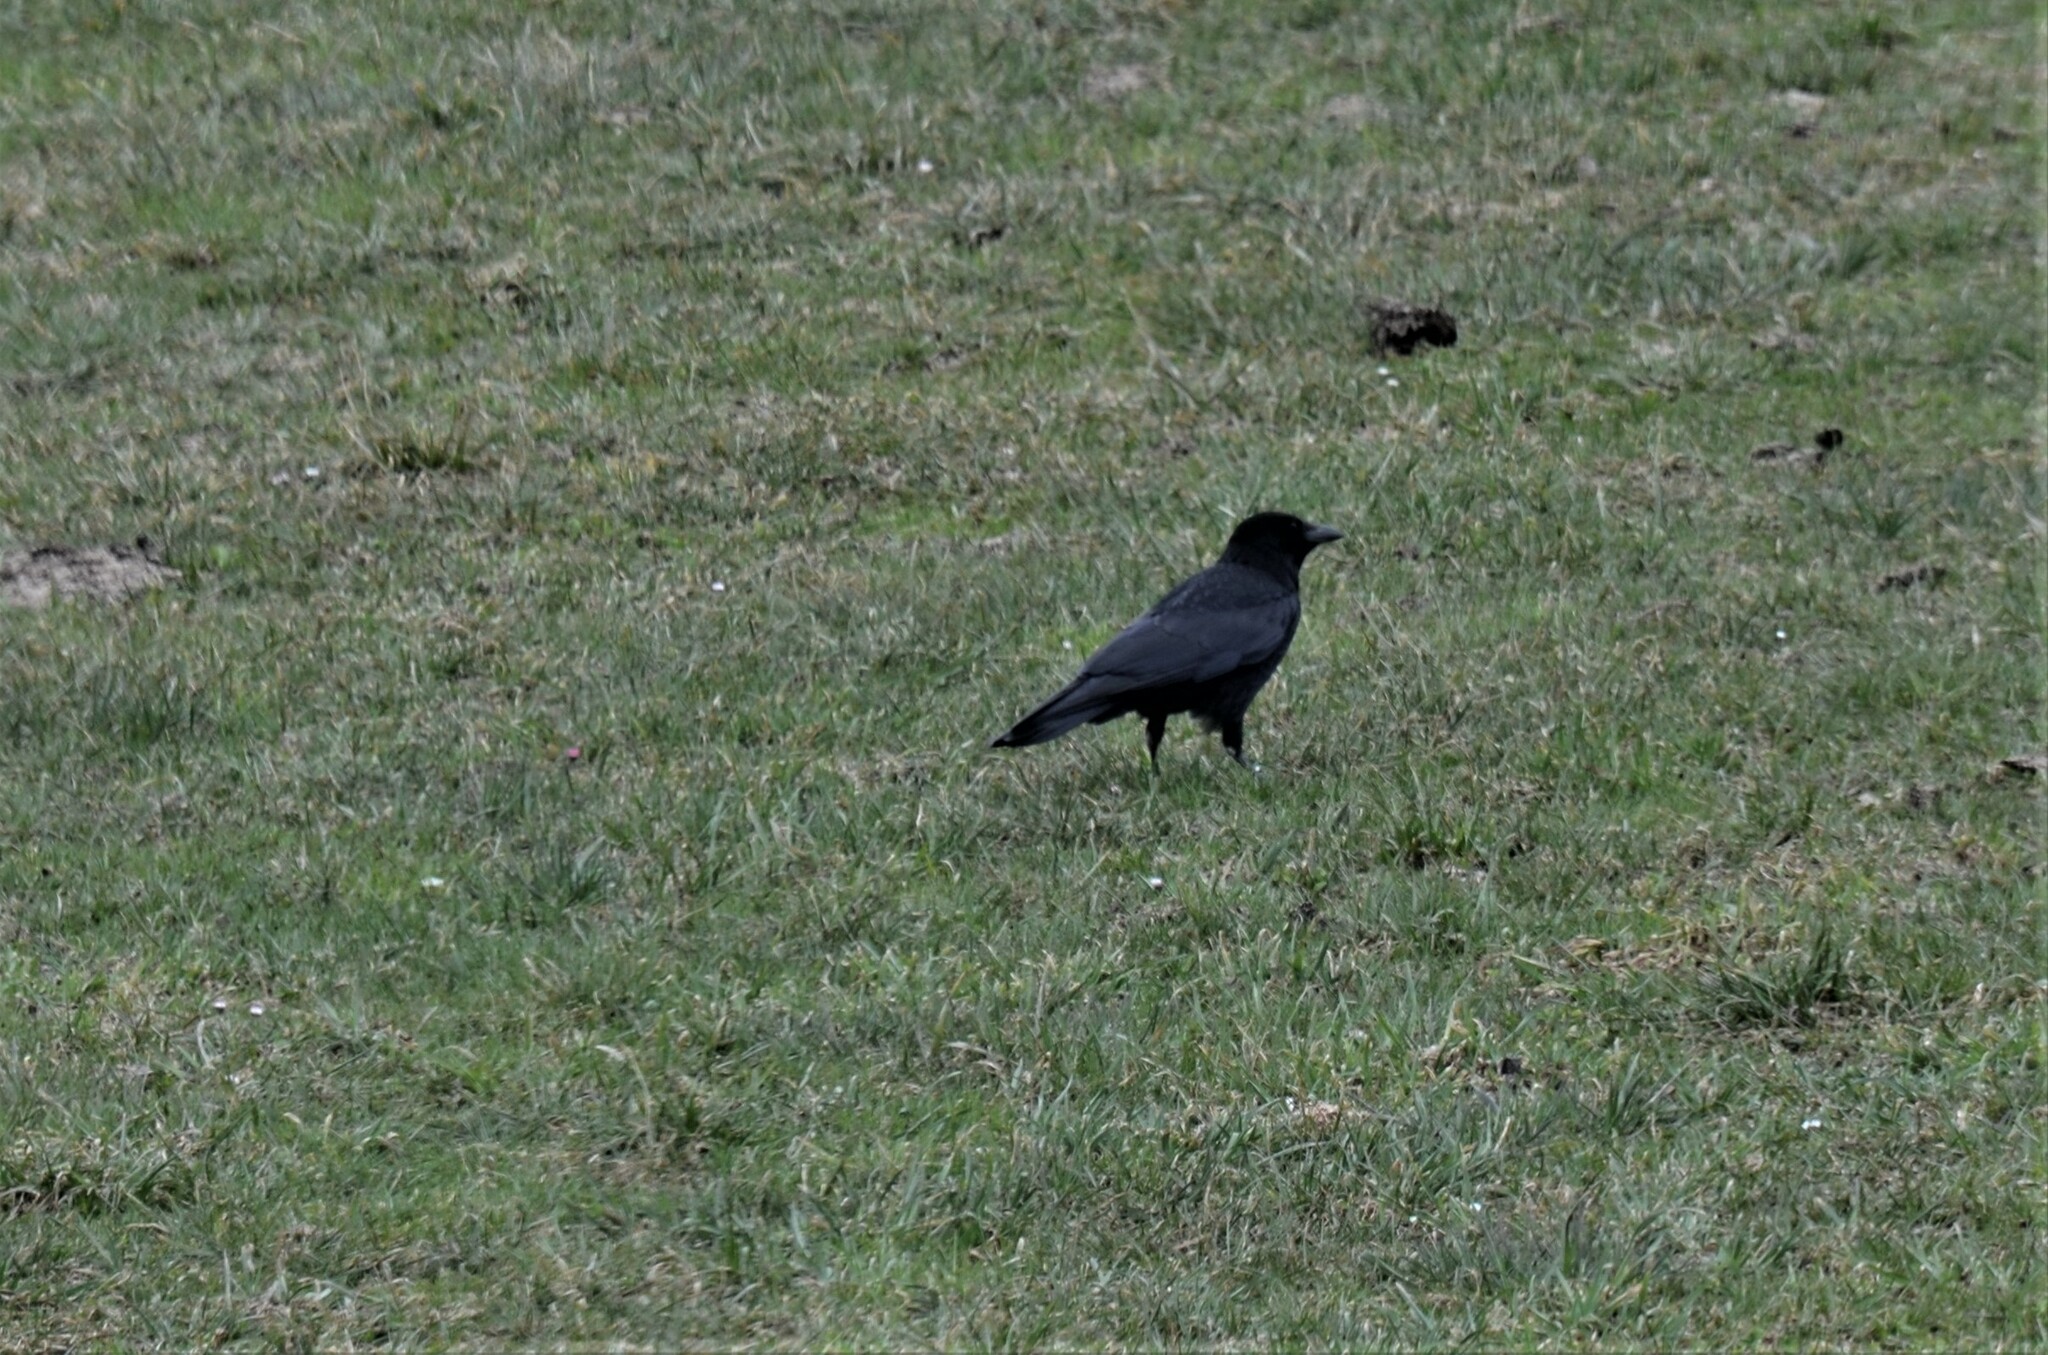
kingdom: Animalia
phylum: Chordata
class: Aves
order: Passeriformes
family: Corvidae
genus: Corvus
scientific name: Corvus corone
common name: Carrion crow
